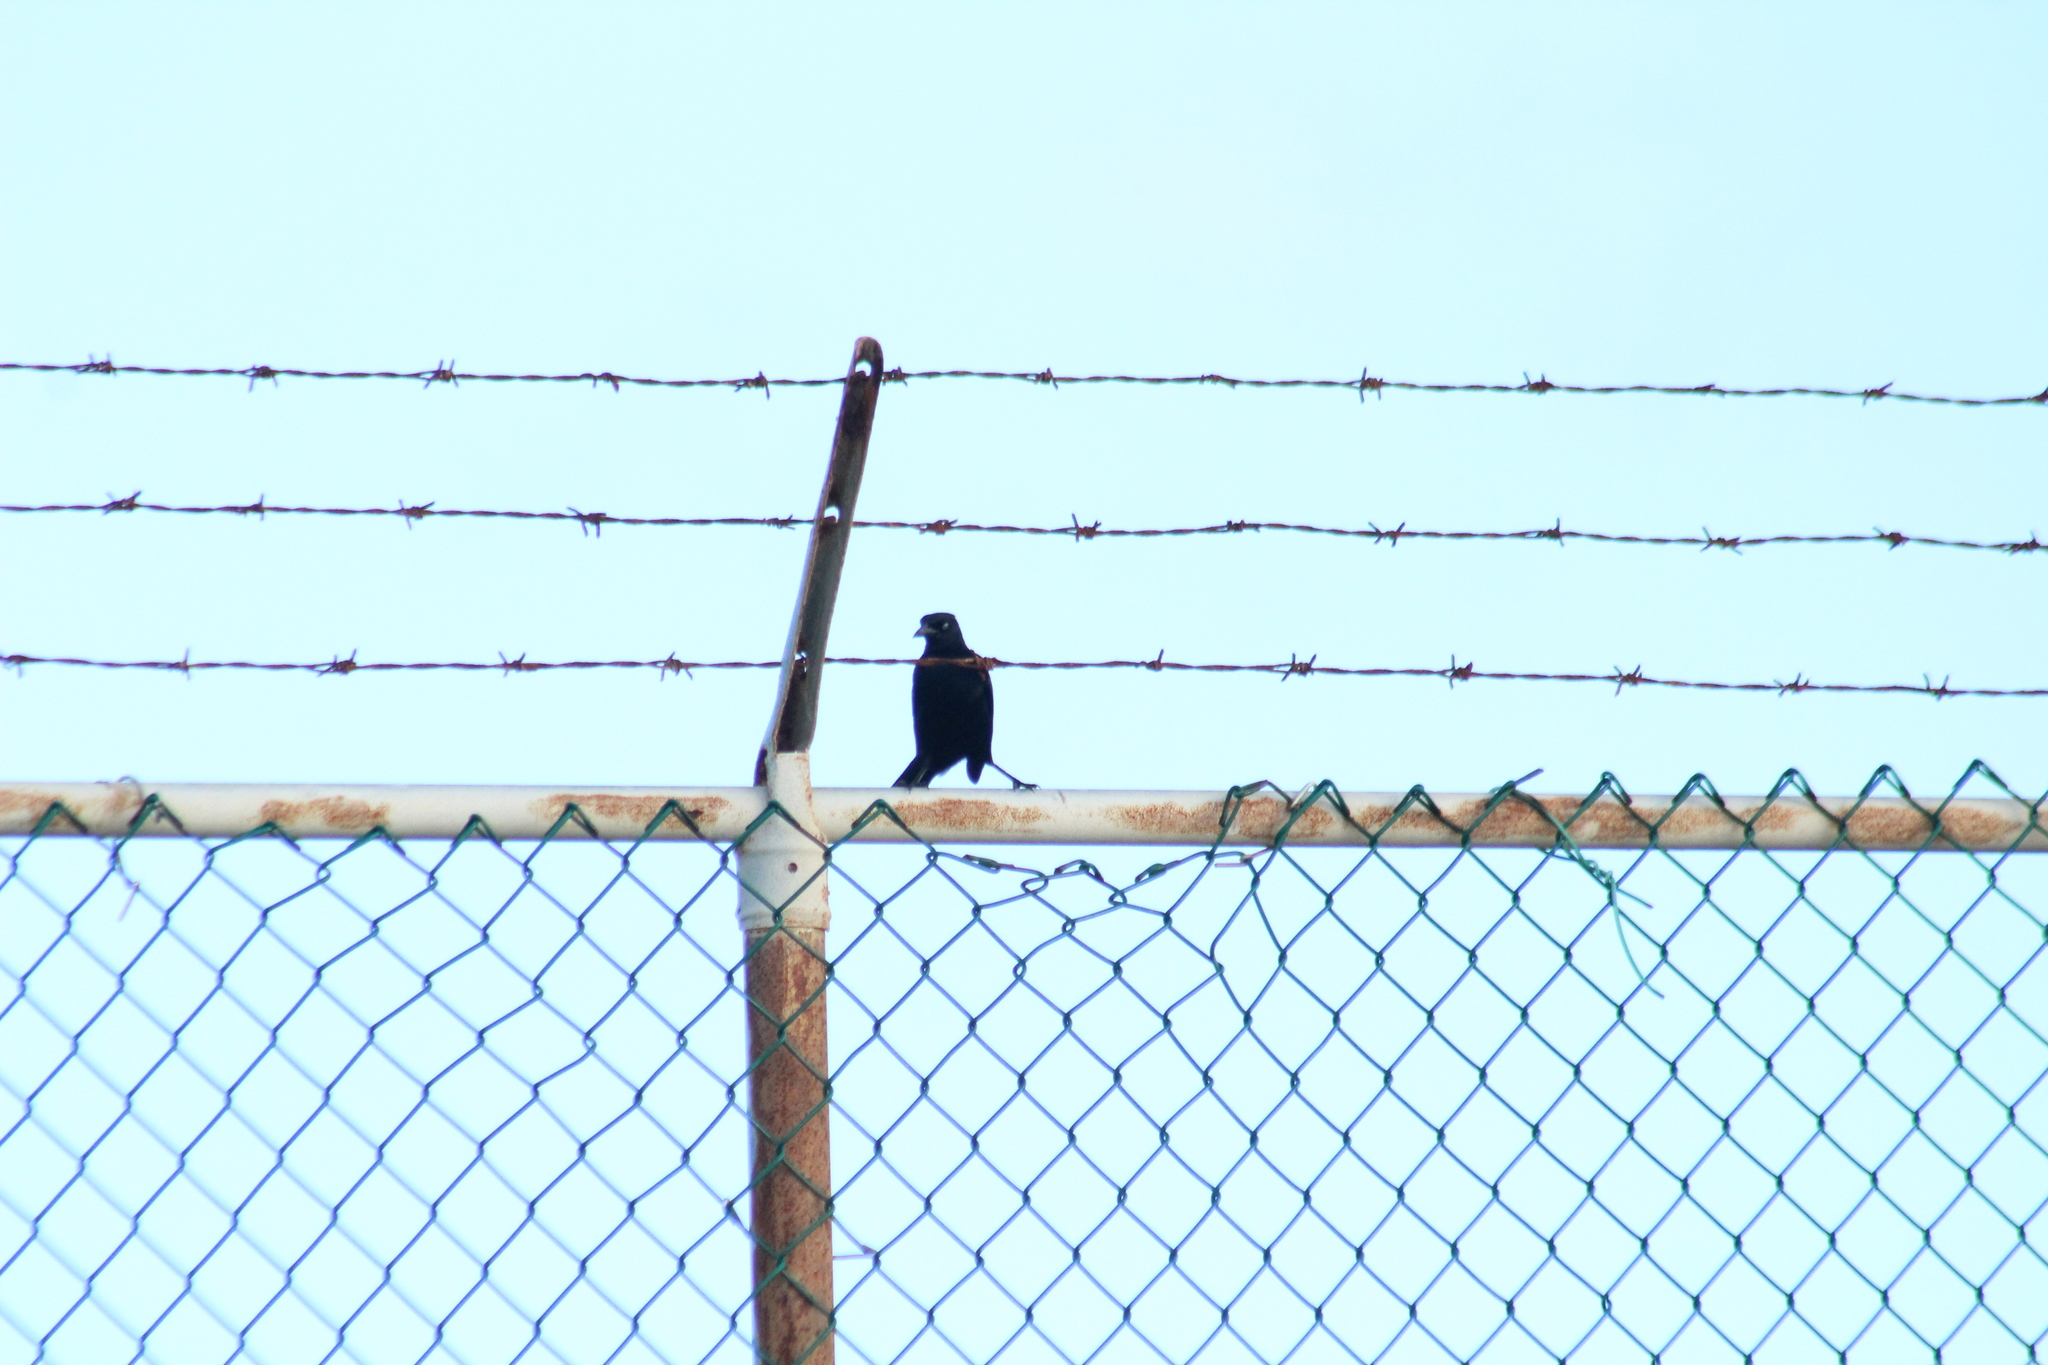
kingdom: Animalia
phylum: Chordata
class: Aves
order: Passeriformes
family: Icteridae
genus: Quiscalus
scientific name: Quiscalus lugubris
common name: Carib grackle
